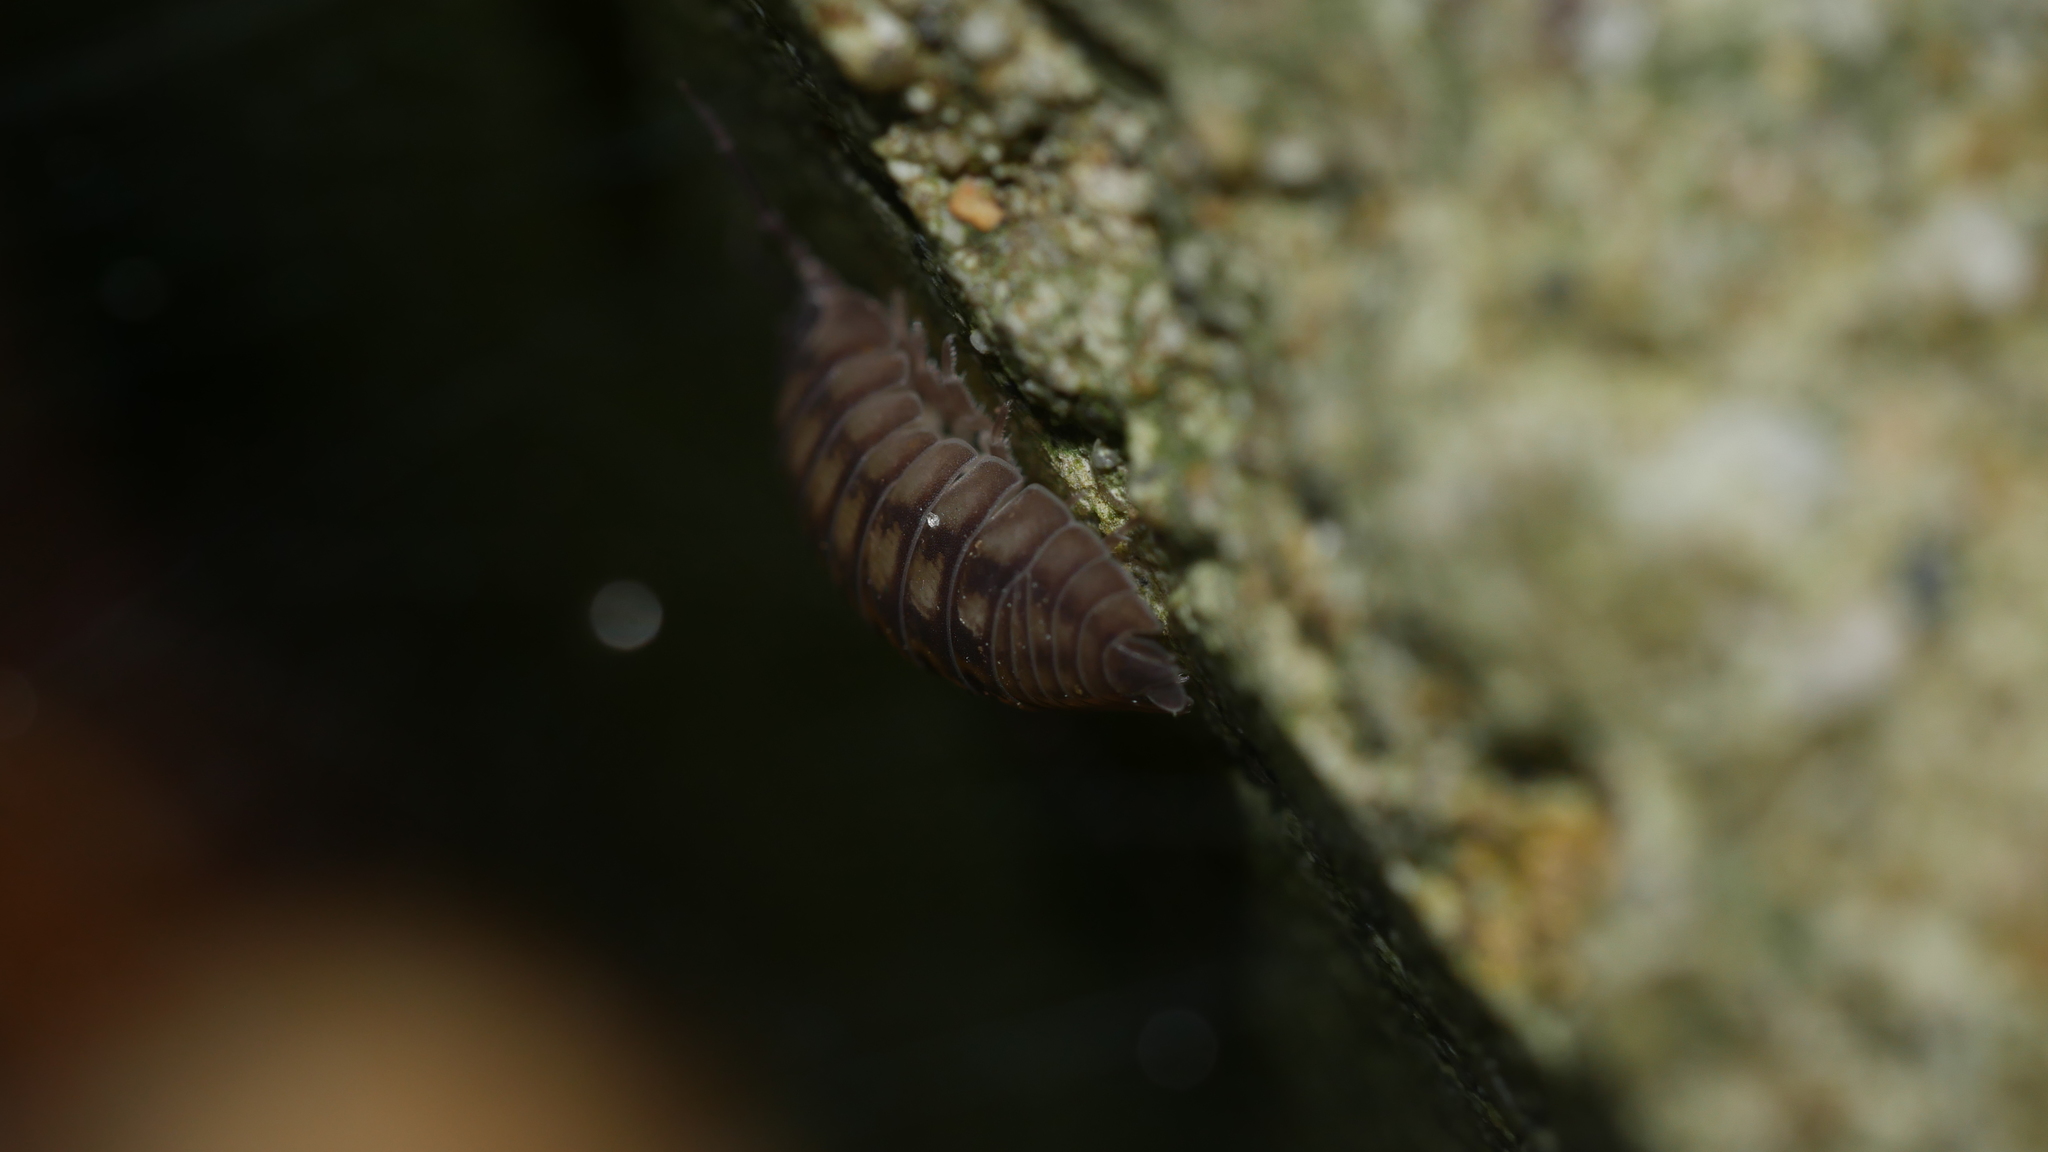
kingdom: Animalia
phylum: Arthropoda
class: Malacostraca
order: Isopoda
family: Armadillidiidae
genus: Armadillidium
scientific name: Armadillidium nasatum
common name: Isopod
